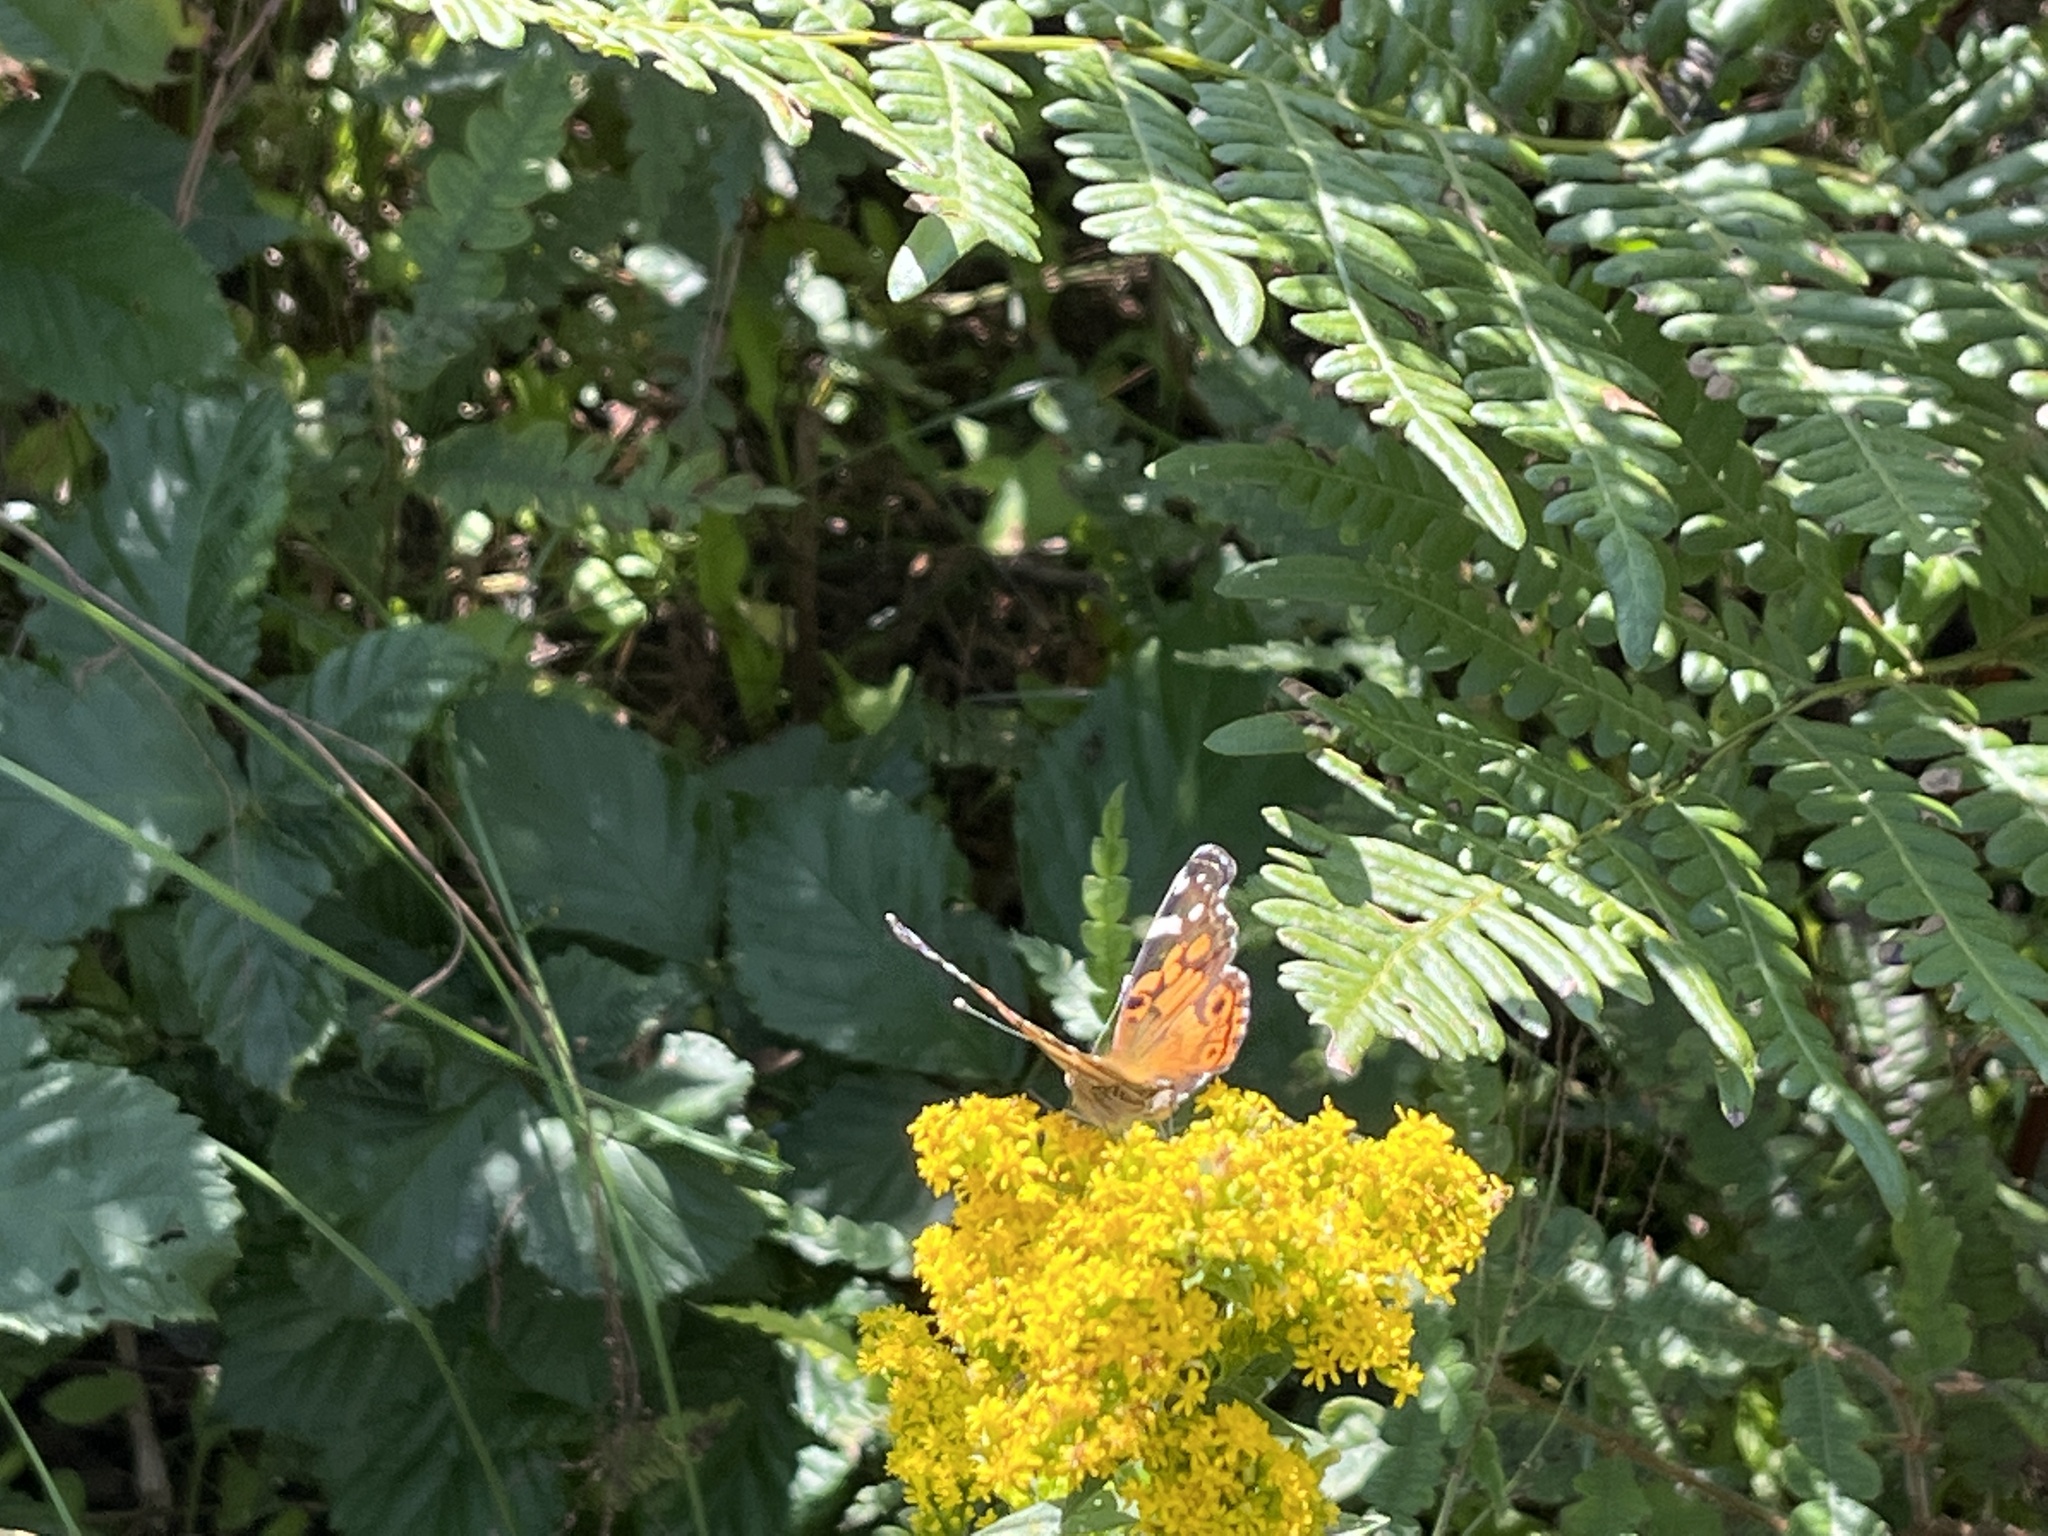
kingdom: Animalia
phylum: Arthropoda
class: Insecta
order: Lepidoptera
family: Nymphalidae
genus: Vanessa
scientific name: Vanessa virginiensis
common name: American lady
